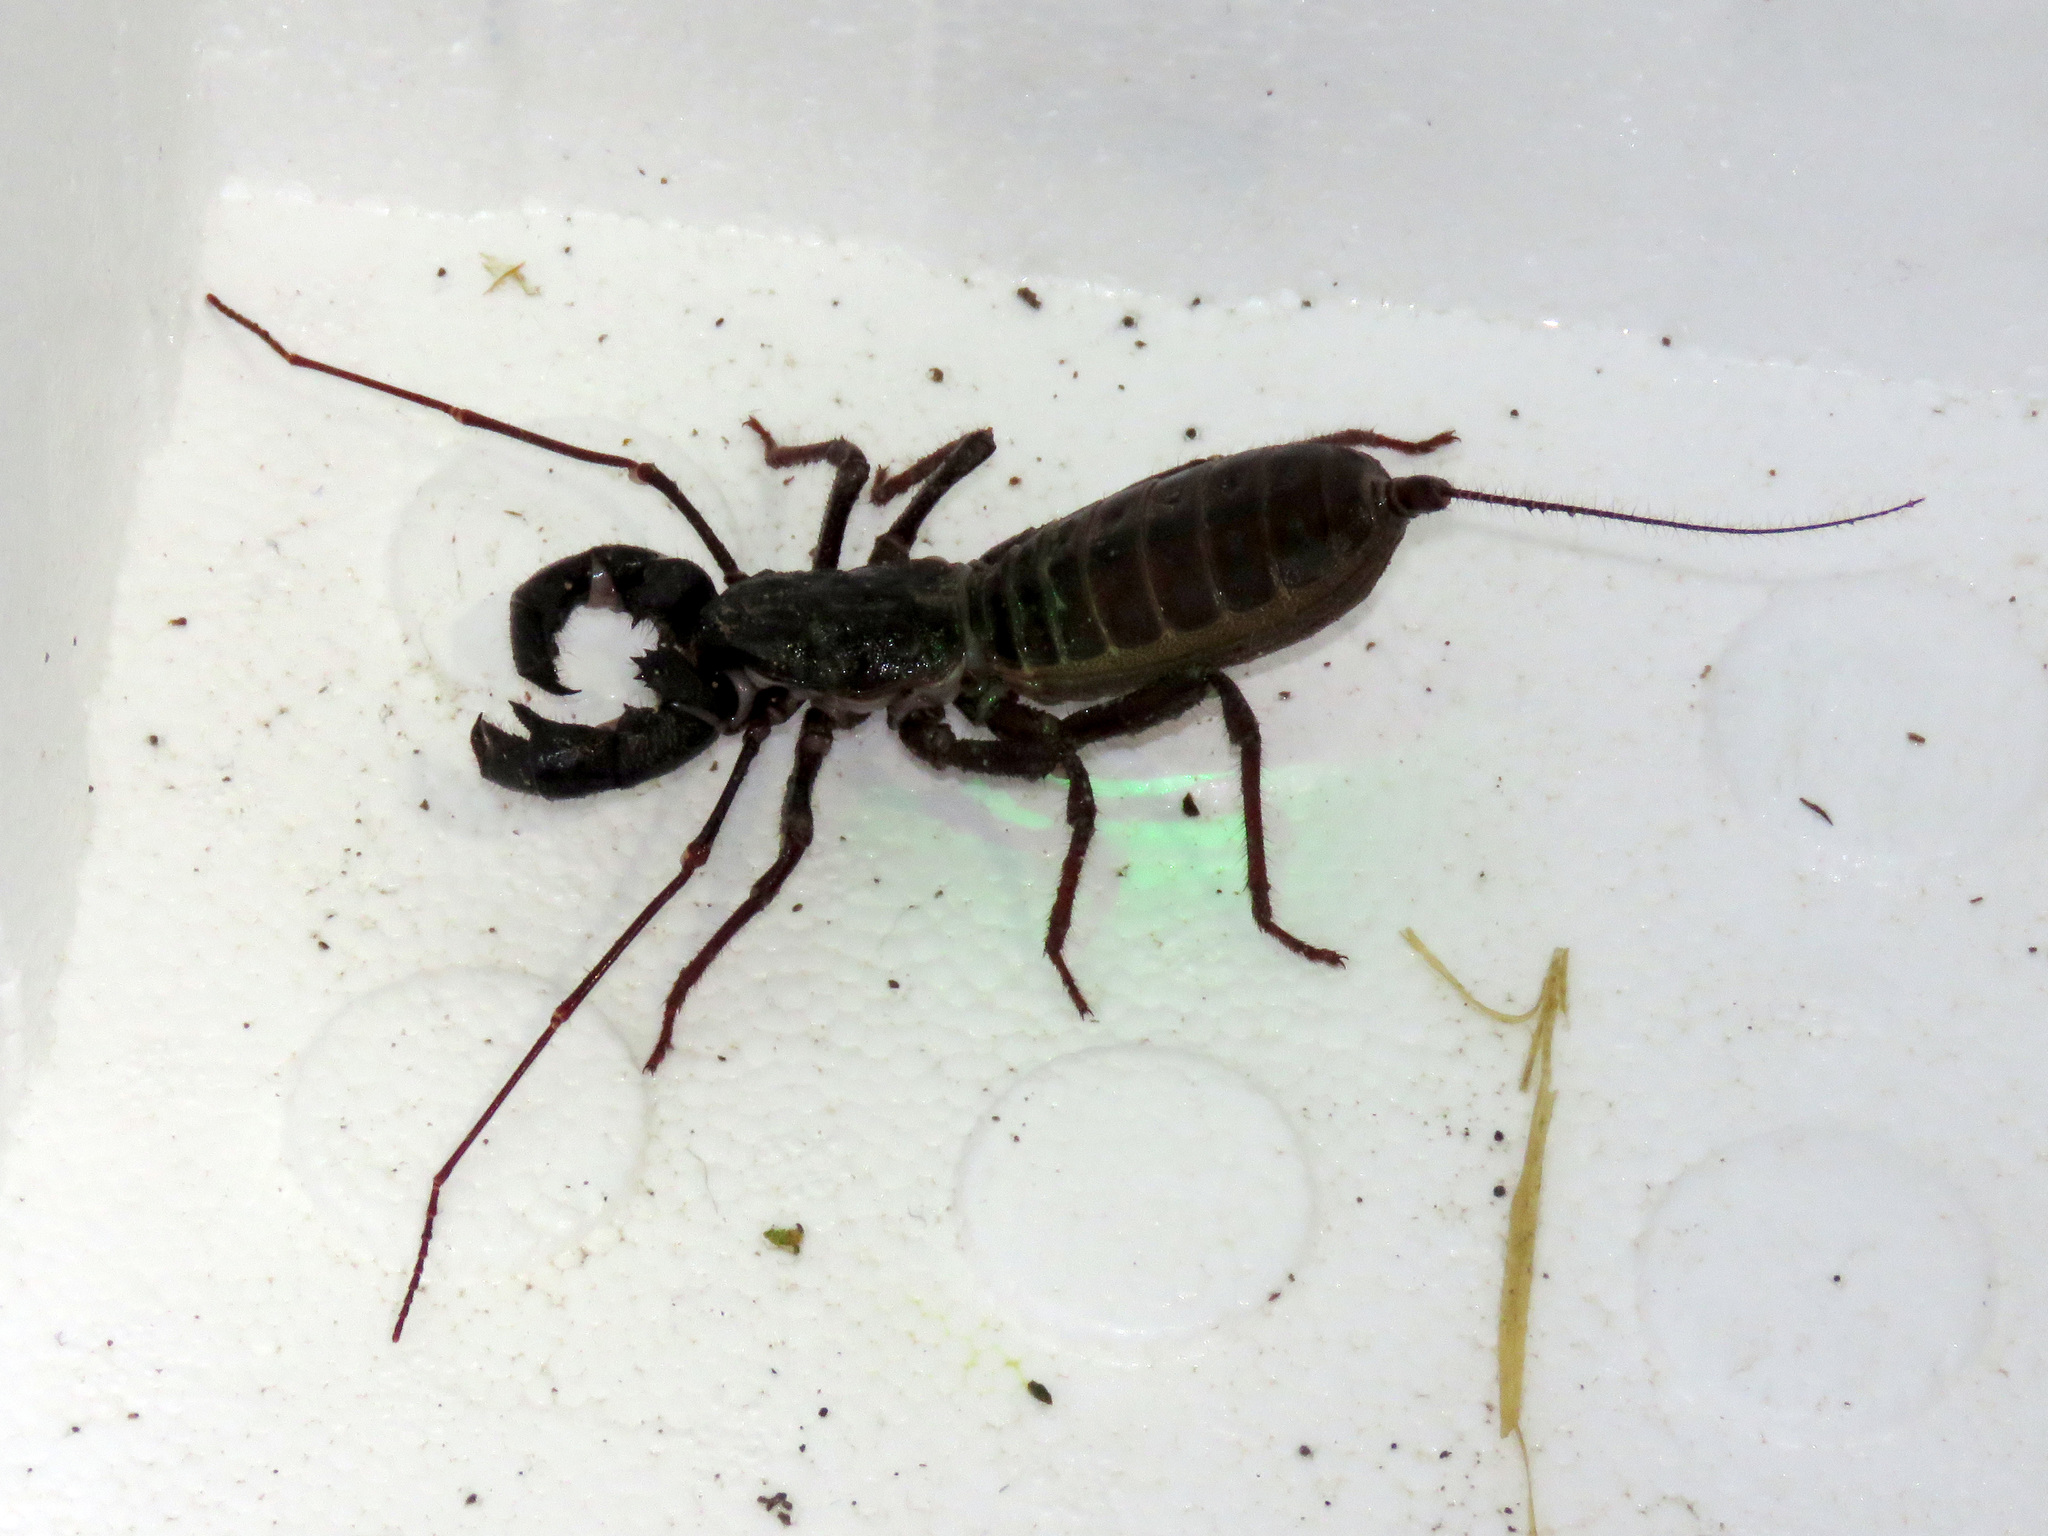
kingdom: Animalia
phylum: Arthropoda
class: Arachnida
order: Uropygi
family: Thelyphonidae
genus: Mastigoproctus
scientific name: Mastigoproctus tohono
